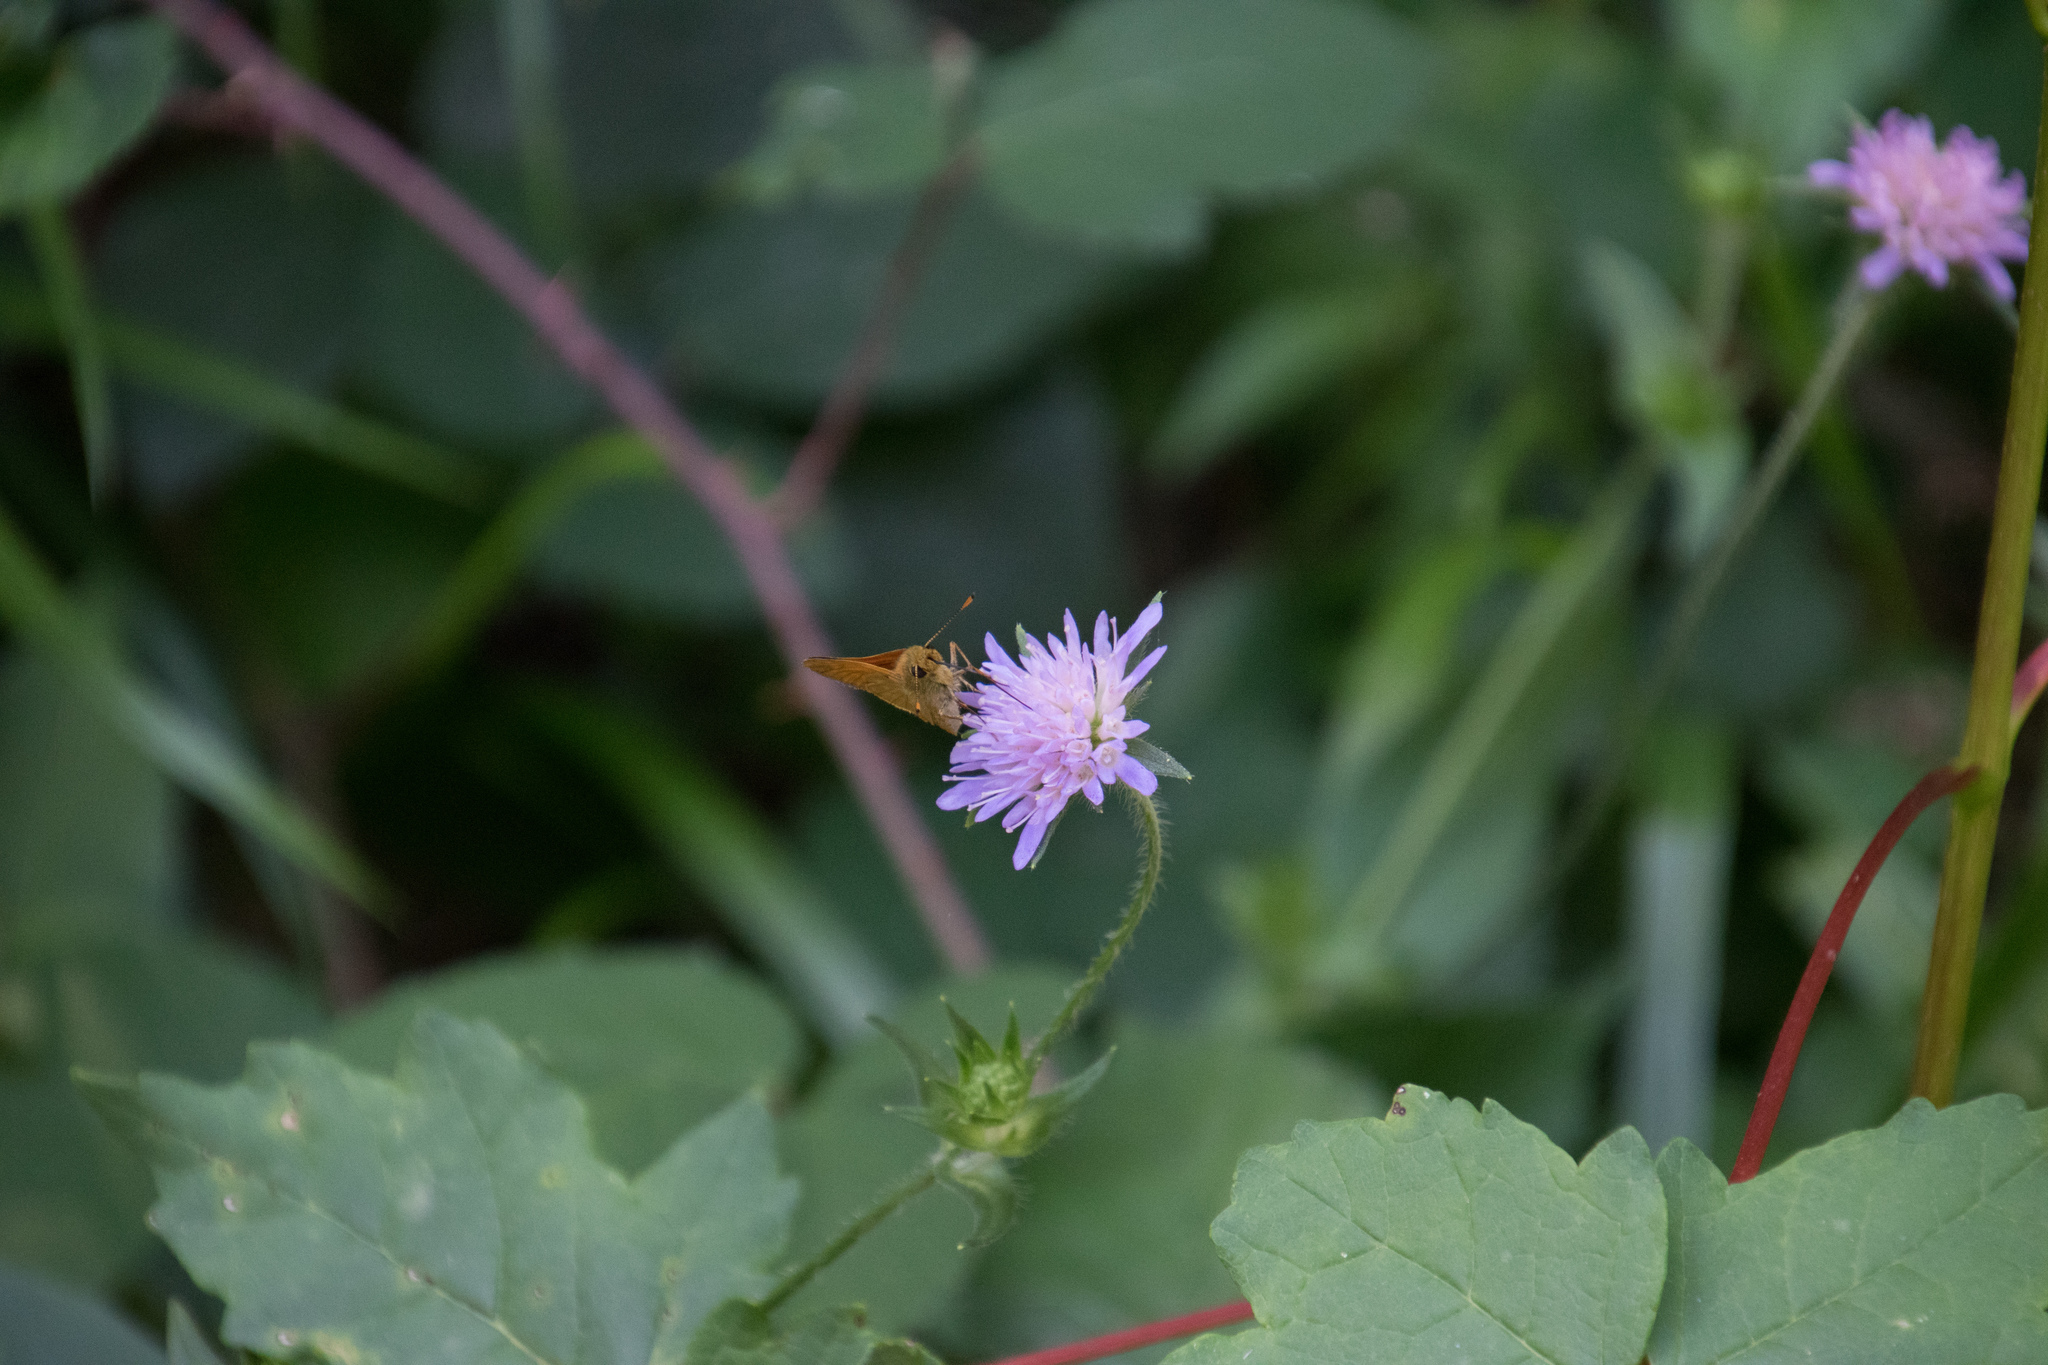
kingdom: Animalia
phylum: Arthropoda
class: Insecta
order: Lepidoptera
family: Hesperiidae
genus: Ochlodes
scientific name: Ochlodes venata
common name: Large skipper
